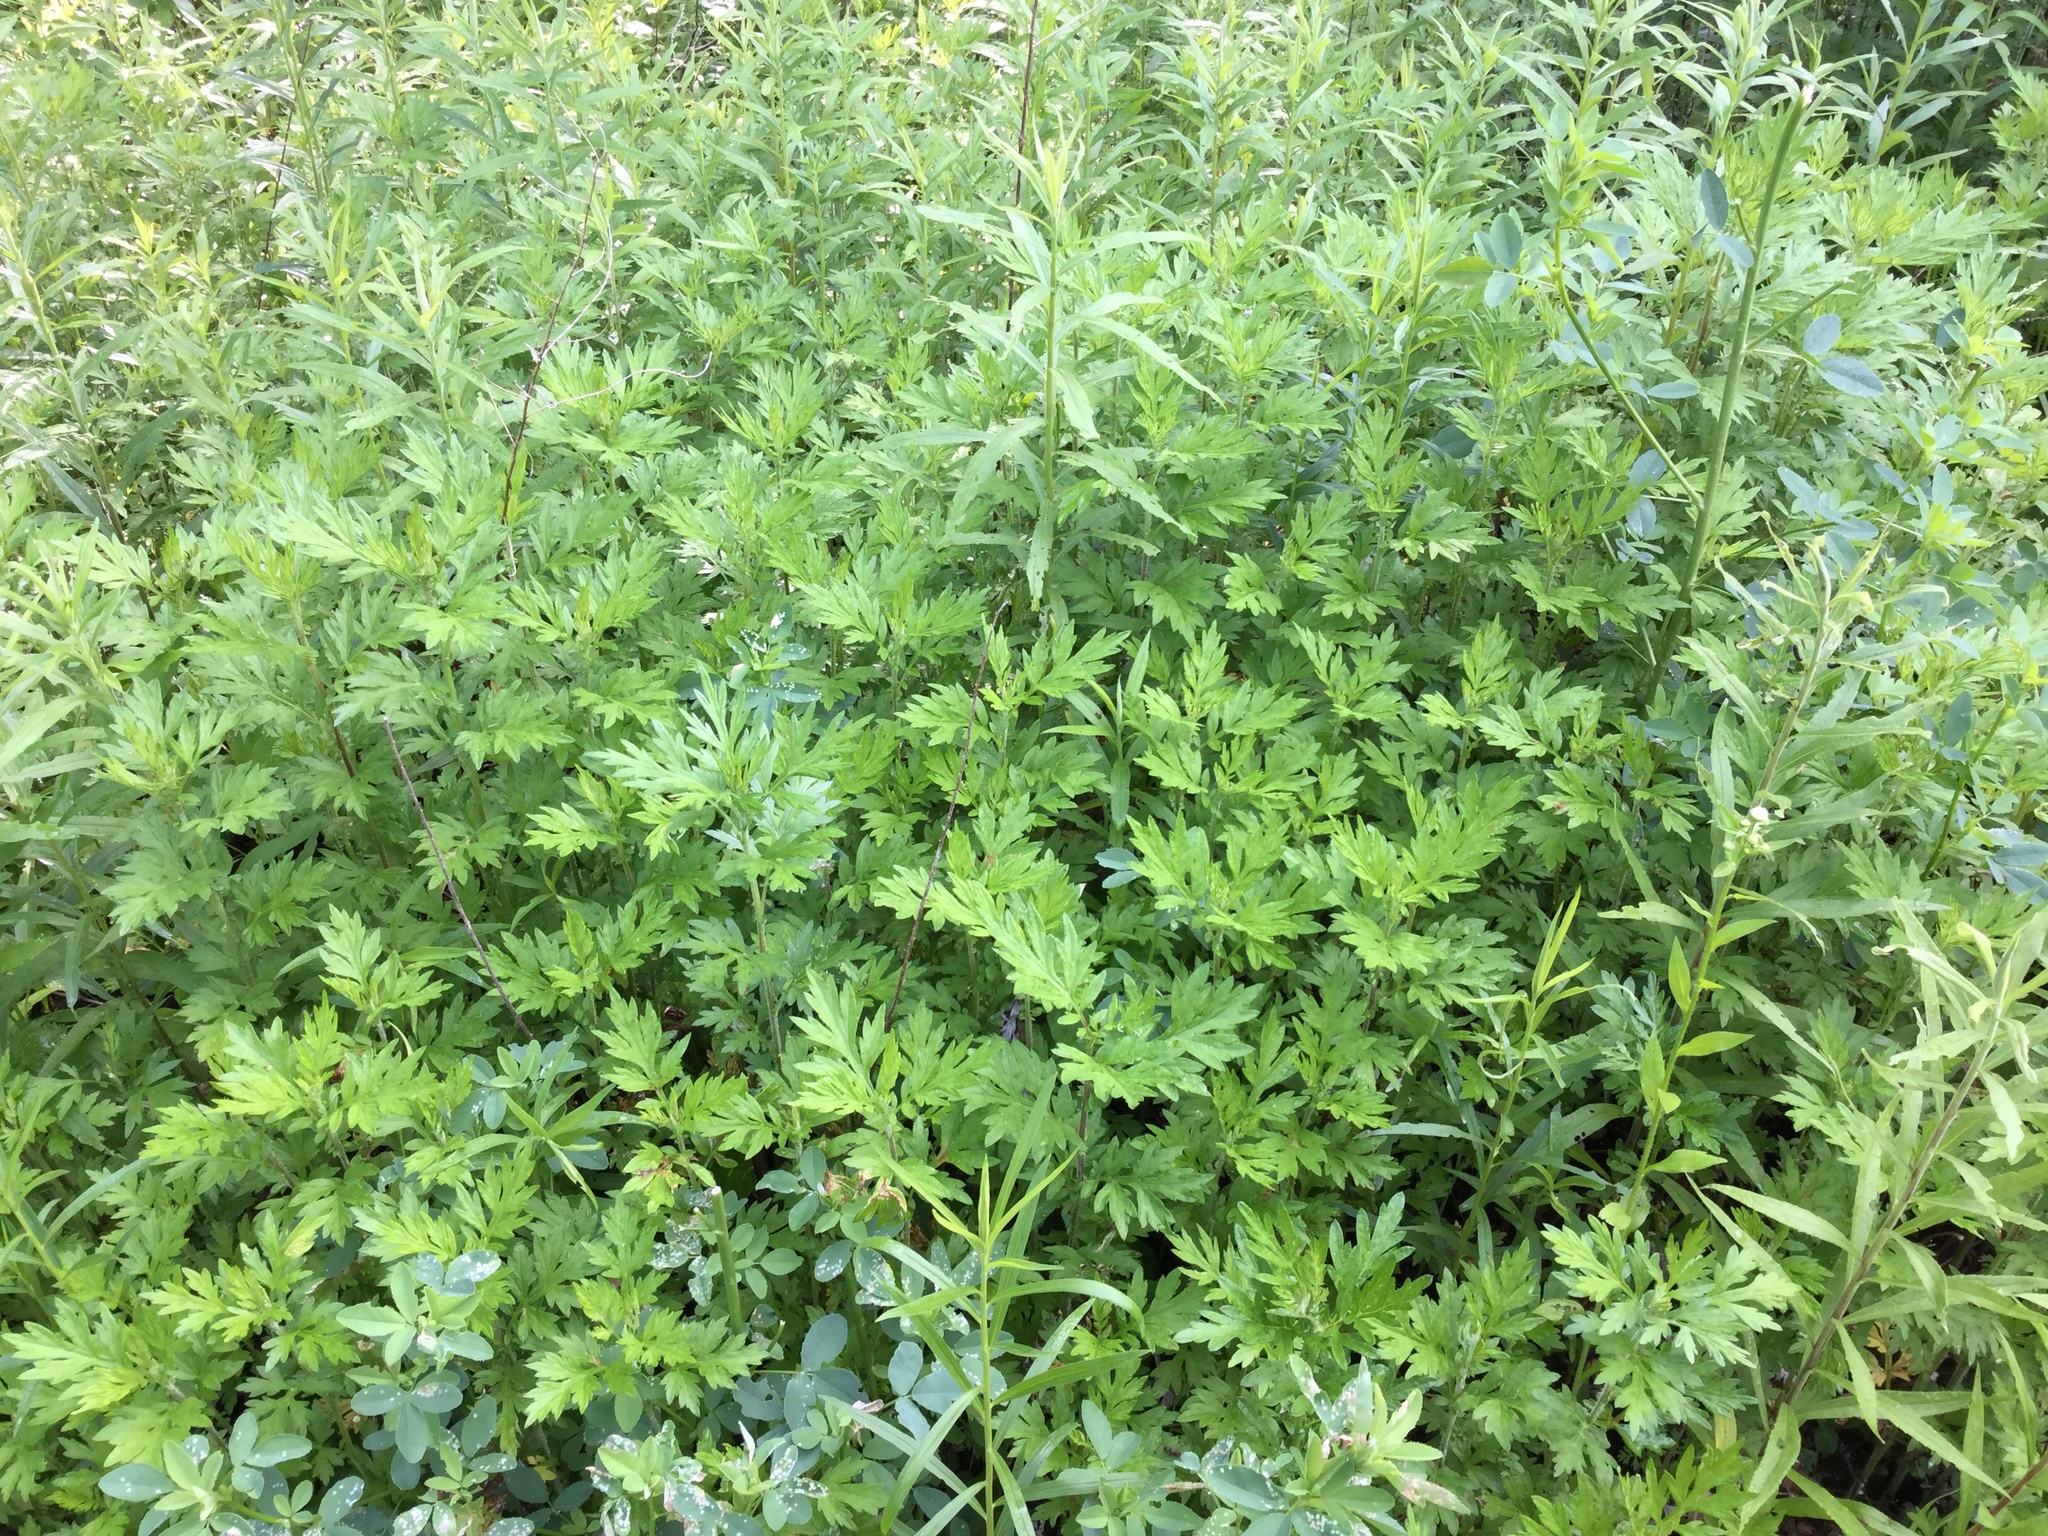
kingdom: Plantae
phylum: Tracheophyta
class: Magnoliopsida
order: Asterales
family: Asteraceae
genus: Artemisia
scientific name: Artemisia vulgaris
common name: Mugwort
